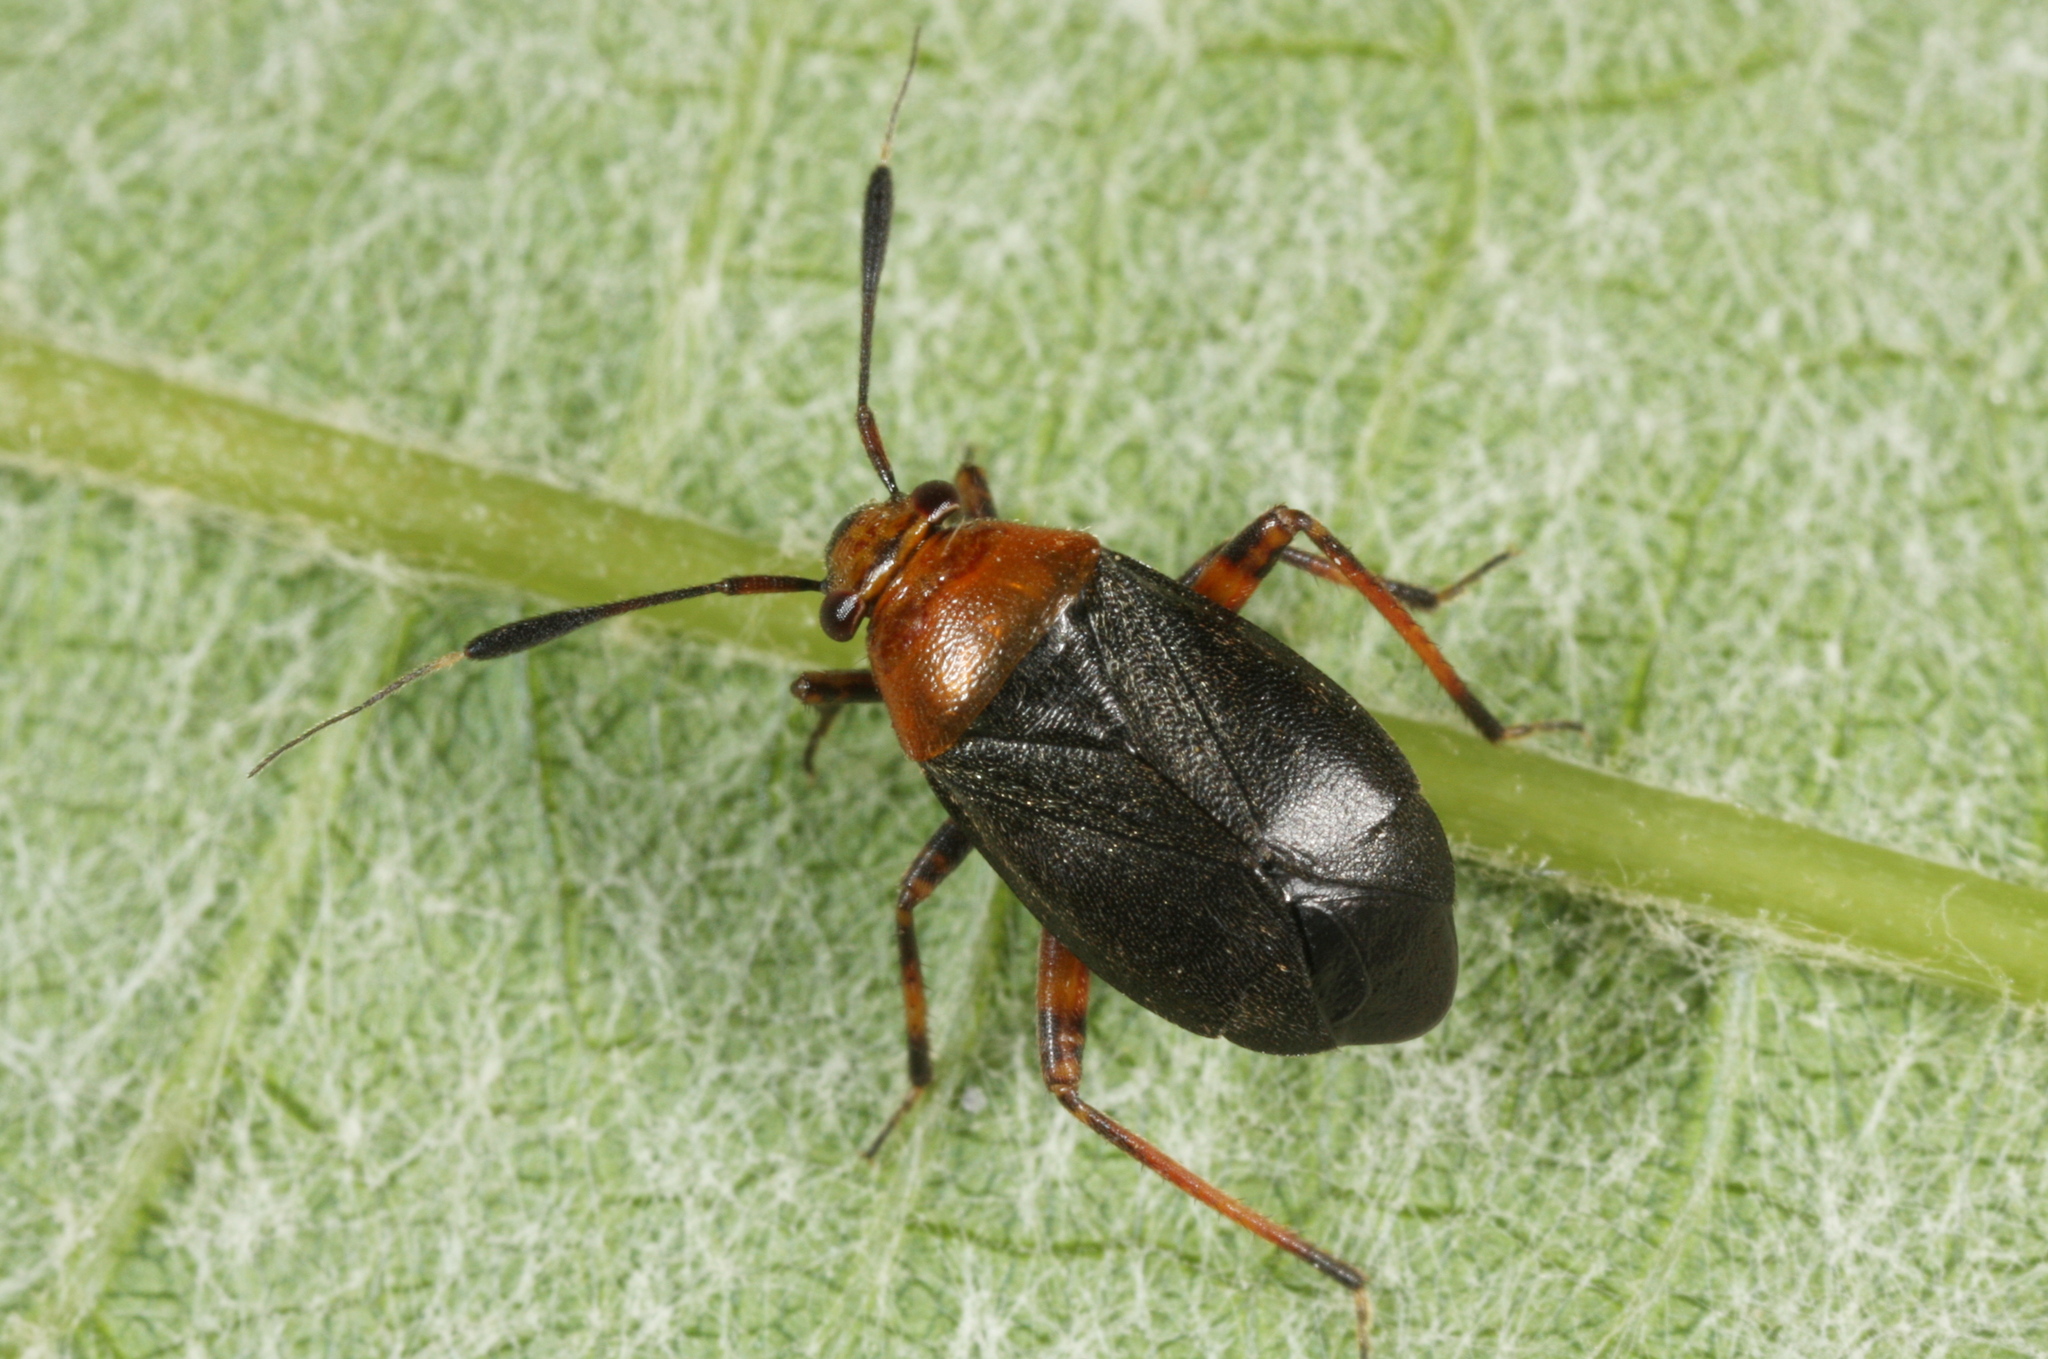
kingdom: Animalia
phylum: Arthropoda
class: Insecta
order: Hemiptera
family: Miridae
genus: Capsus
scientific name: Capsus ater
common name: Black plant bug
